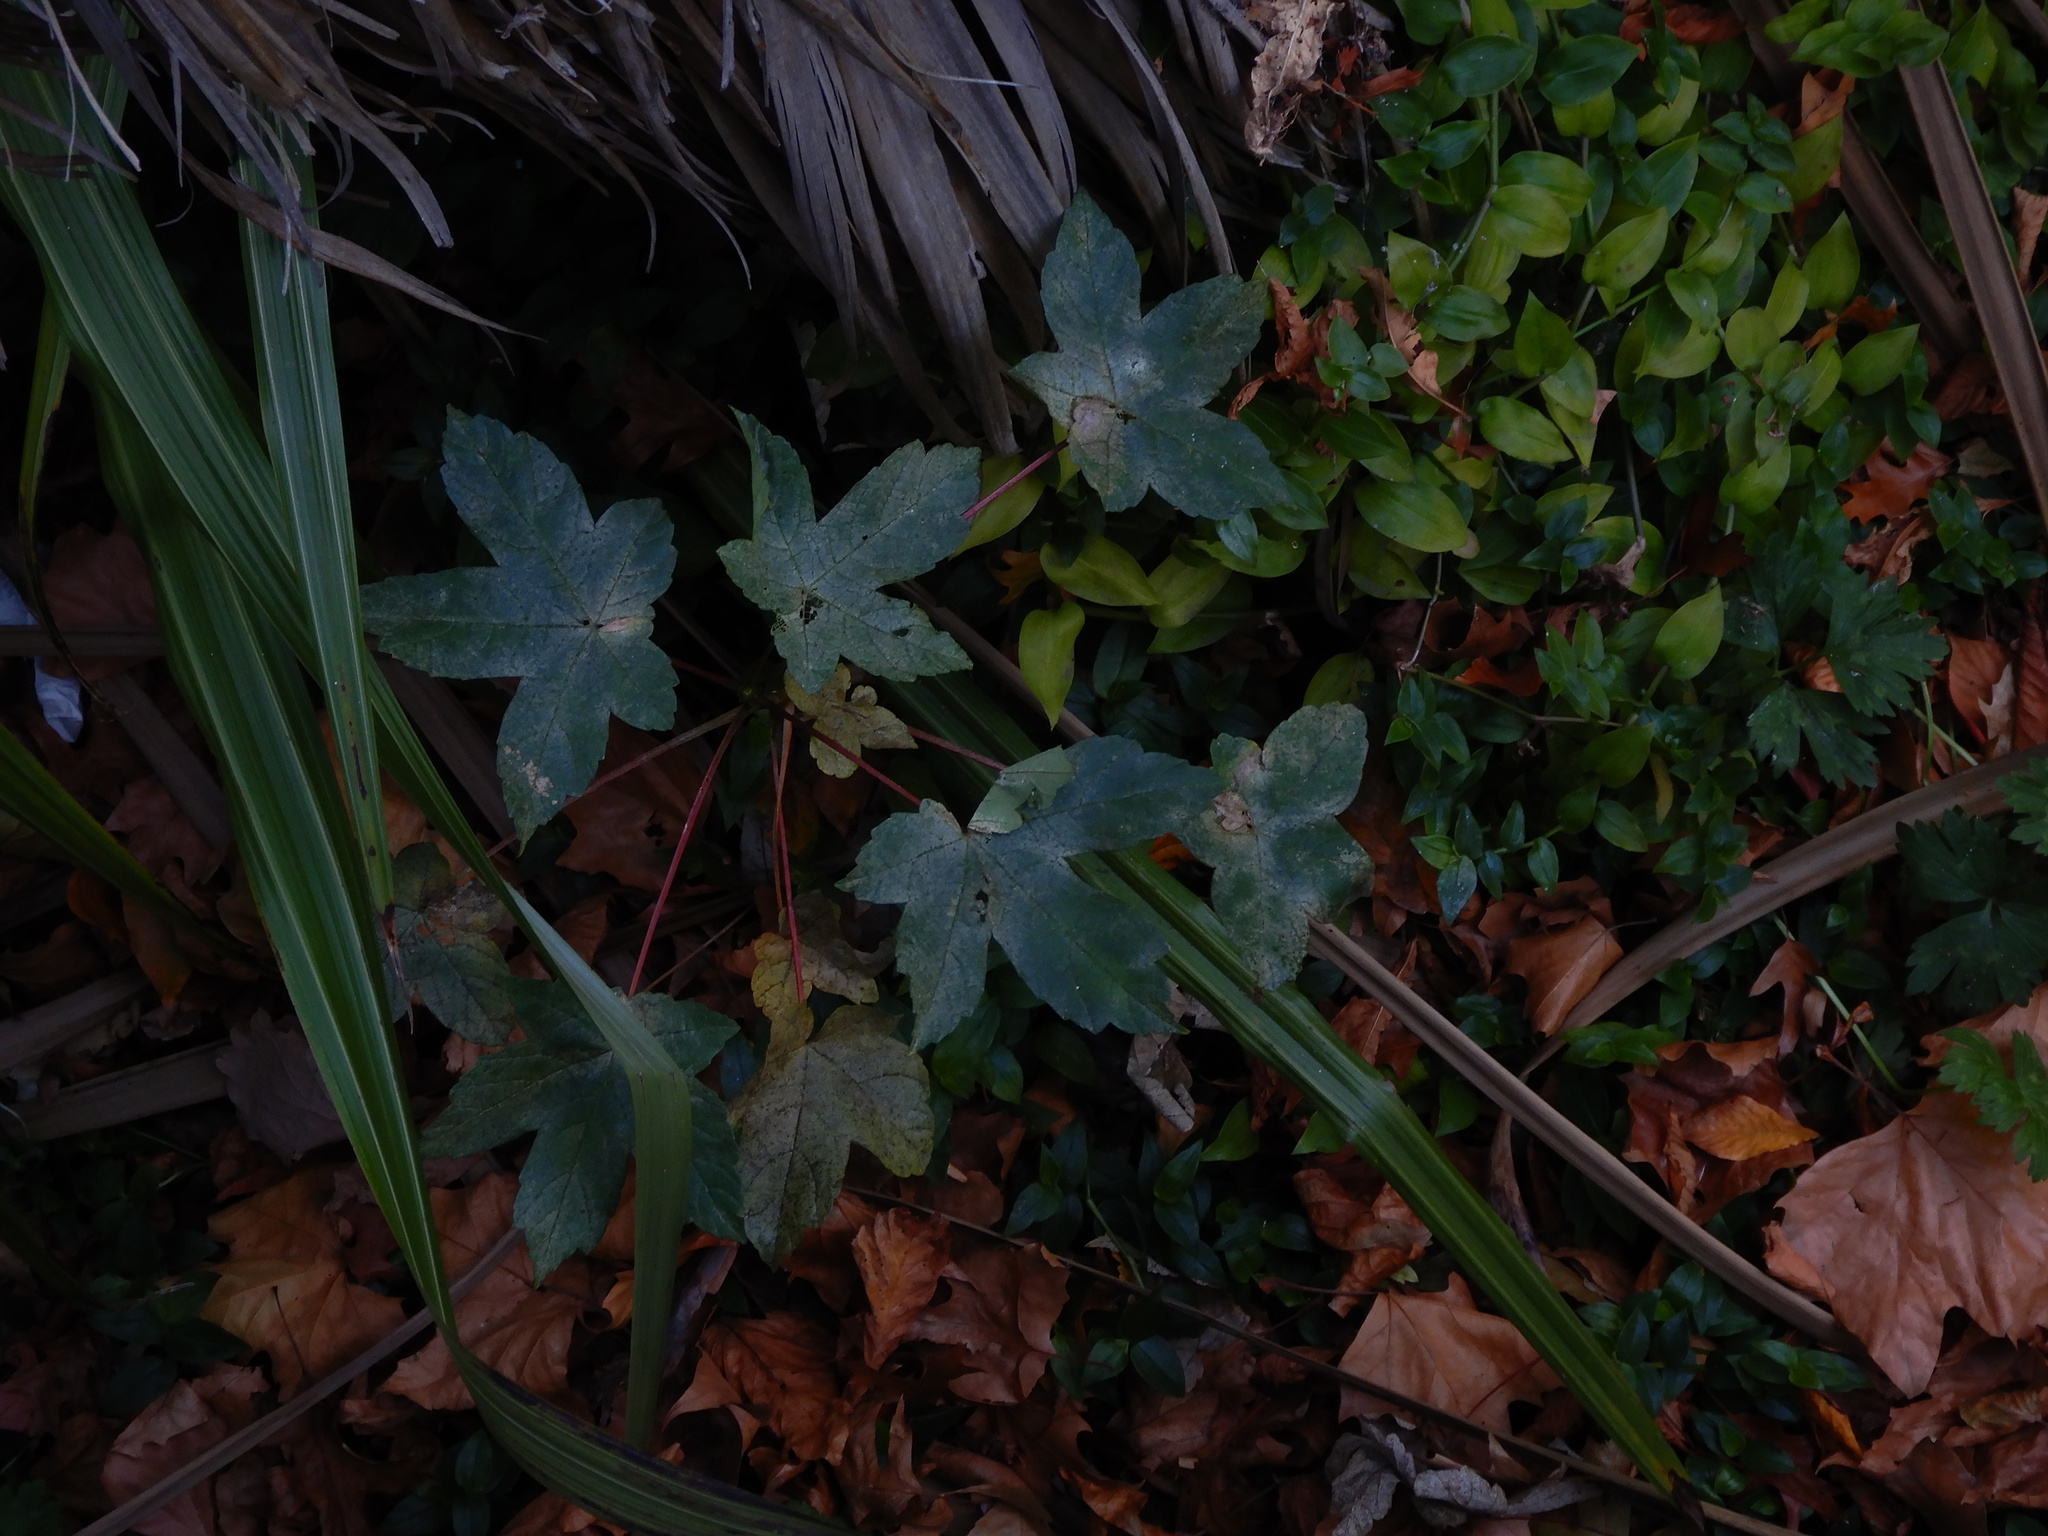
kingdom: Plantae
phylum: Tracheophyta
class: Magnoliopsida
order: Sapindales
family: Sapindaceae
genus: Acer
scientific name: Acer pseudoplatanus
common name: Sycamore
